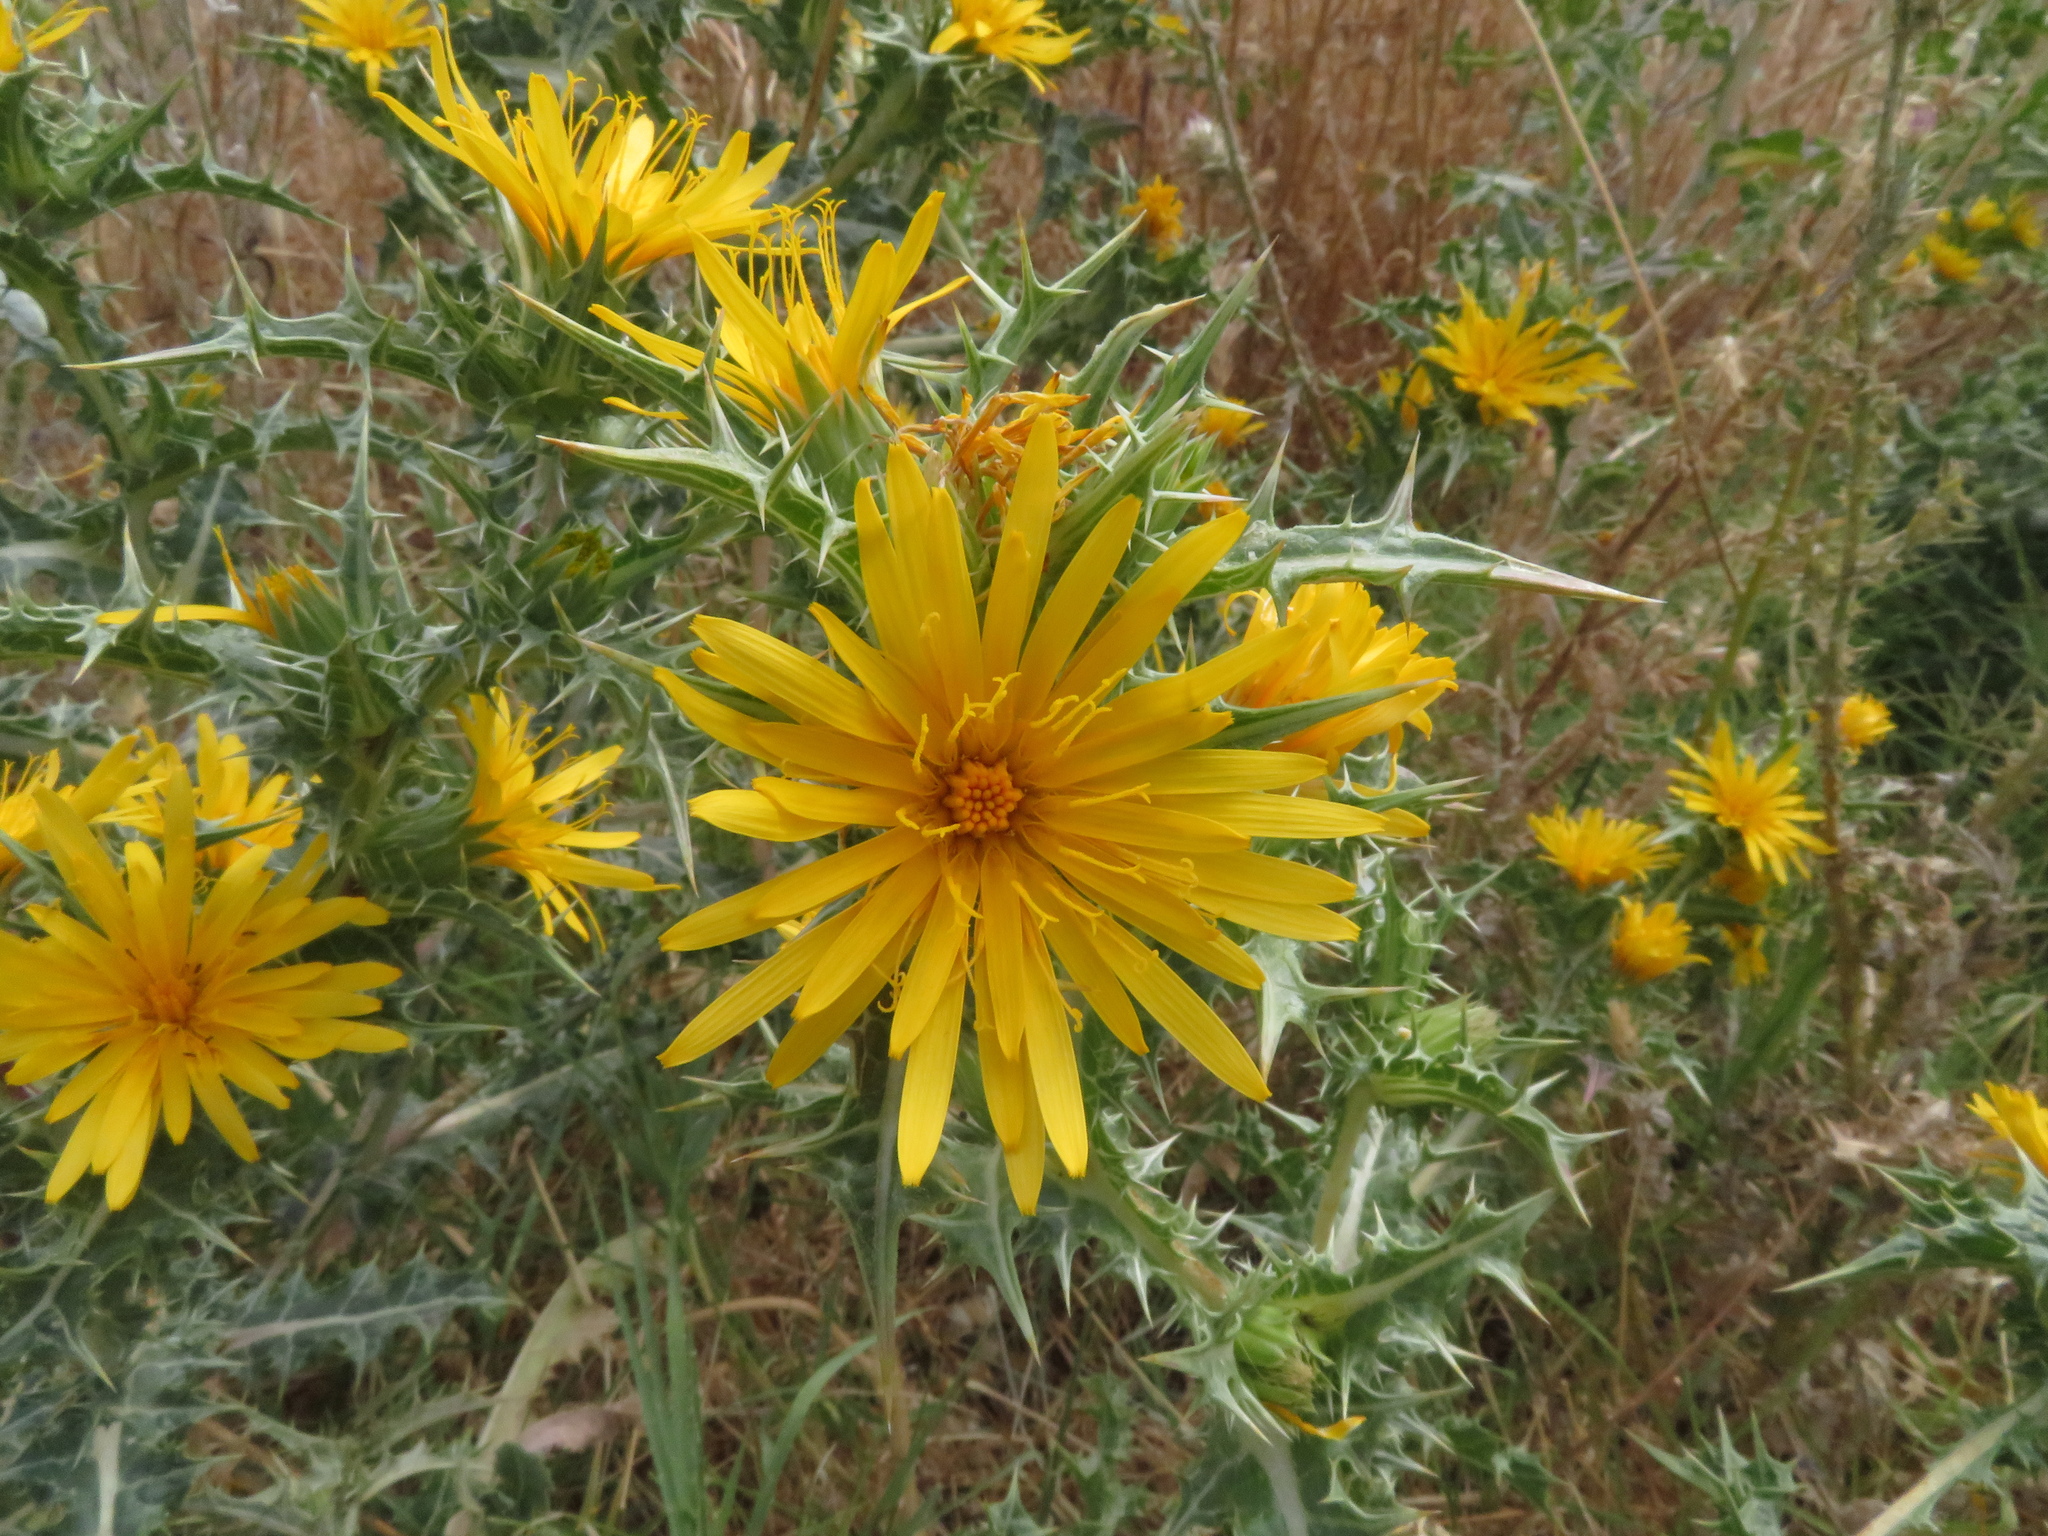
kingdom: Plantae
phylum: Tracheophyta
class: Magnoliopsida
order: Asterales
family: Asteraceae
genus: Scolymus
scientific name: Scolymus hispanicus
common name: Golden thistle
